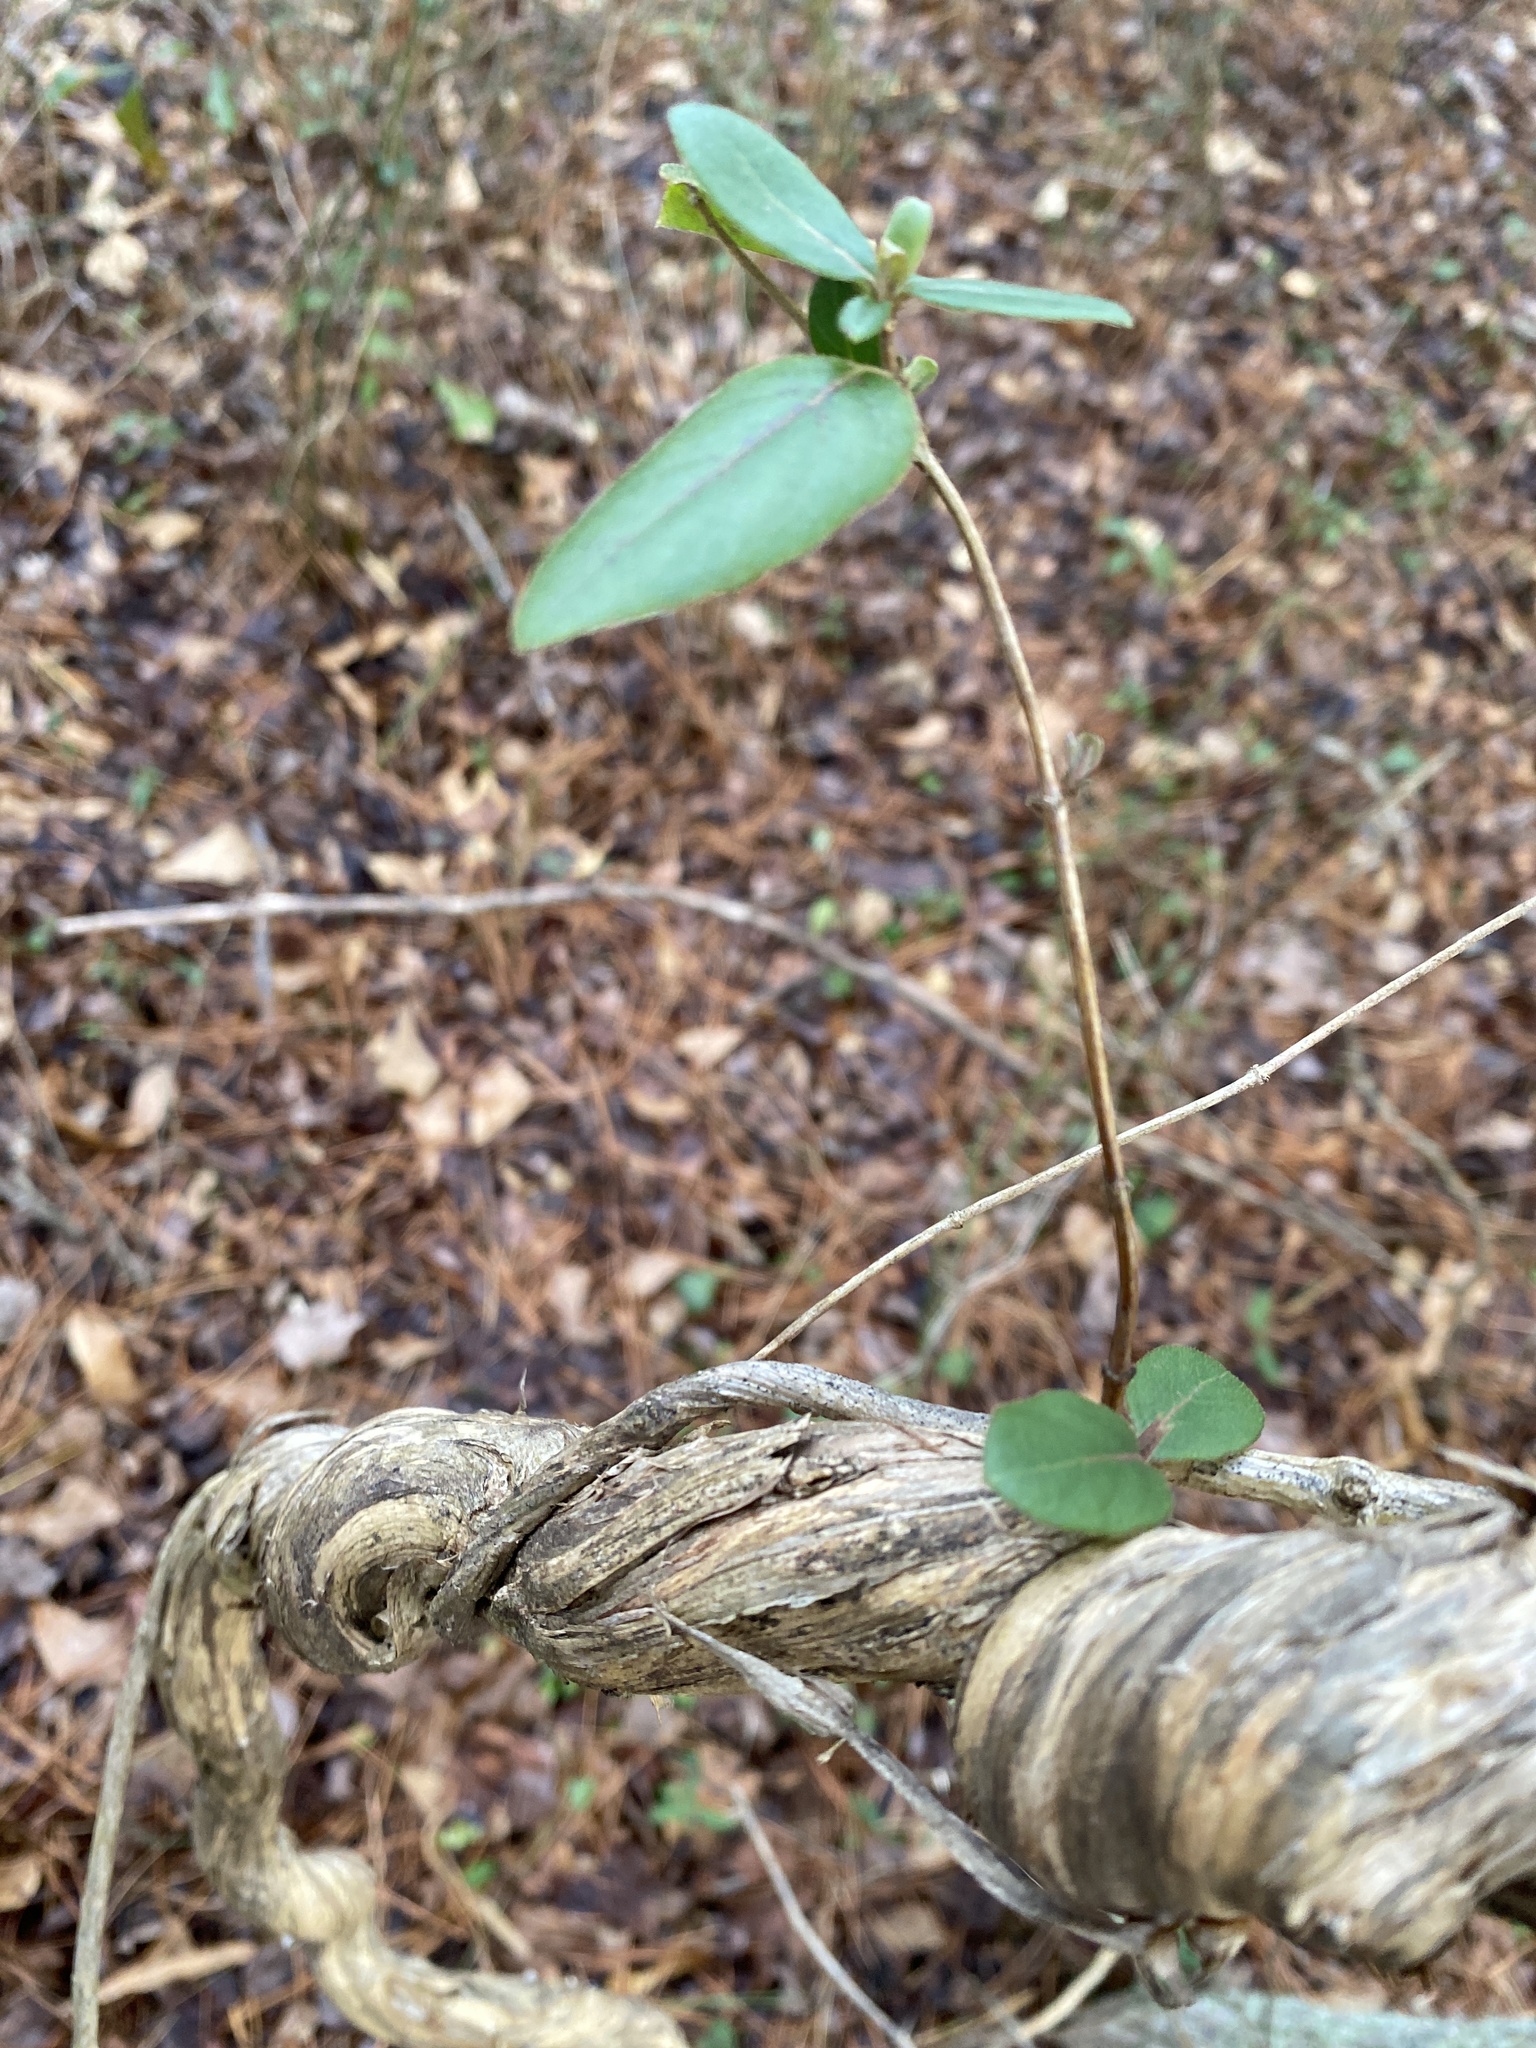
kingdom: Plantae
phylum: Tracheophyta
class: Magnoliopsida
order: Dipsacales
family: Caprifoliaceae
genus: Lonicera
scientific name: Lonicera japonica
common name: Japanese honeysuckle
